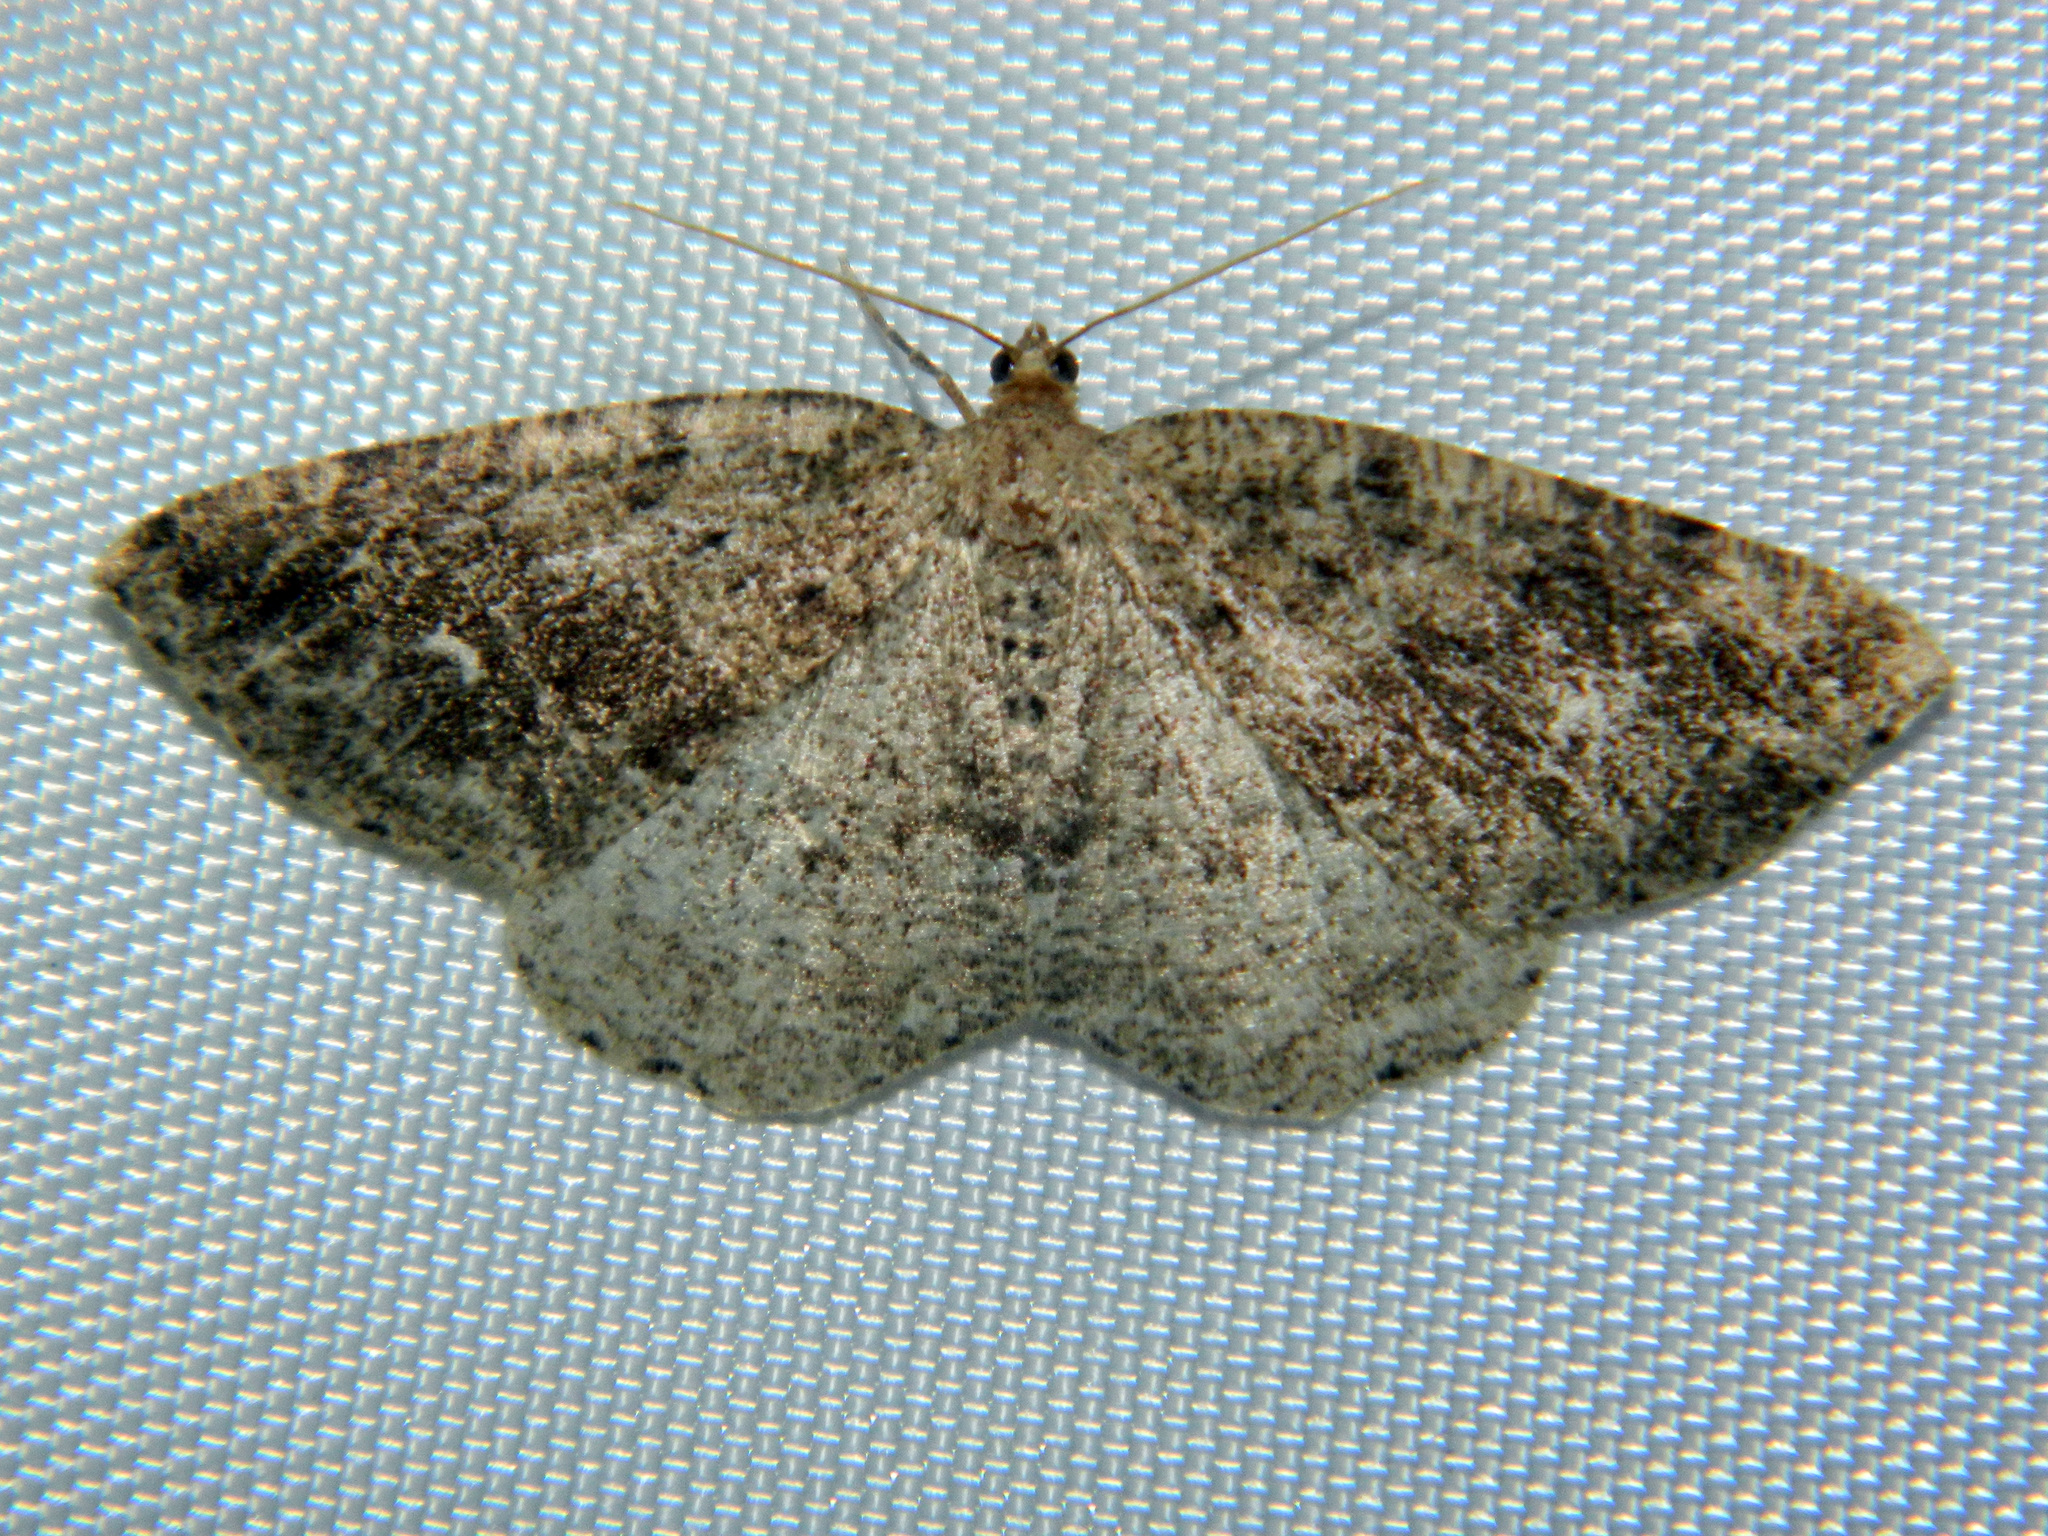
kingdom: Animalia
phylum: Arthropoda
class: Insecta
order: Lepidoptera
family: Geometridae
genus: Homochlodes
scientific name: Homochlodes fritillaria
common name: Pale homochlodes
